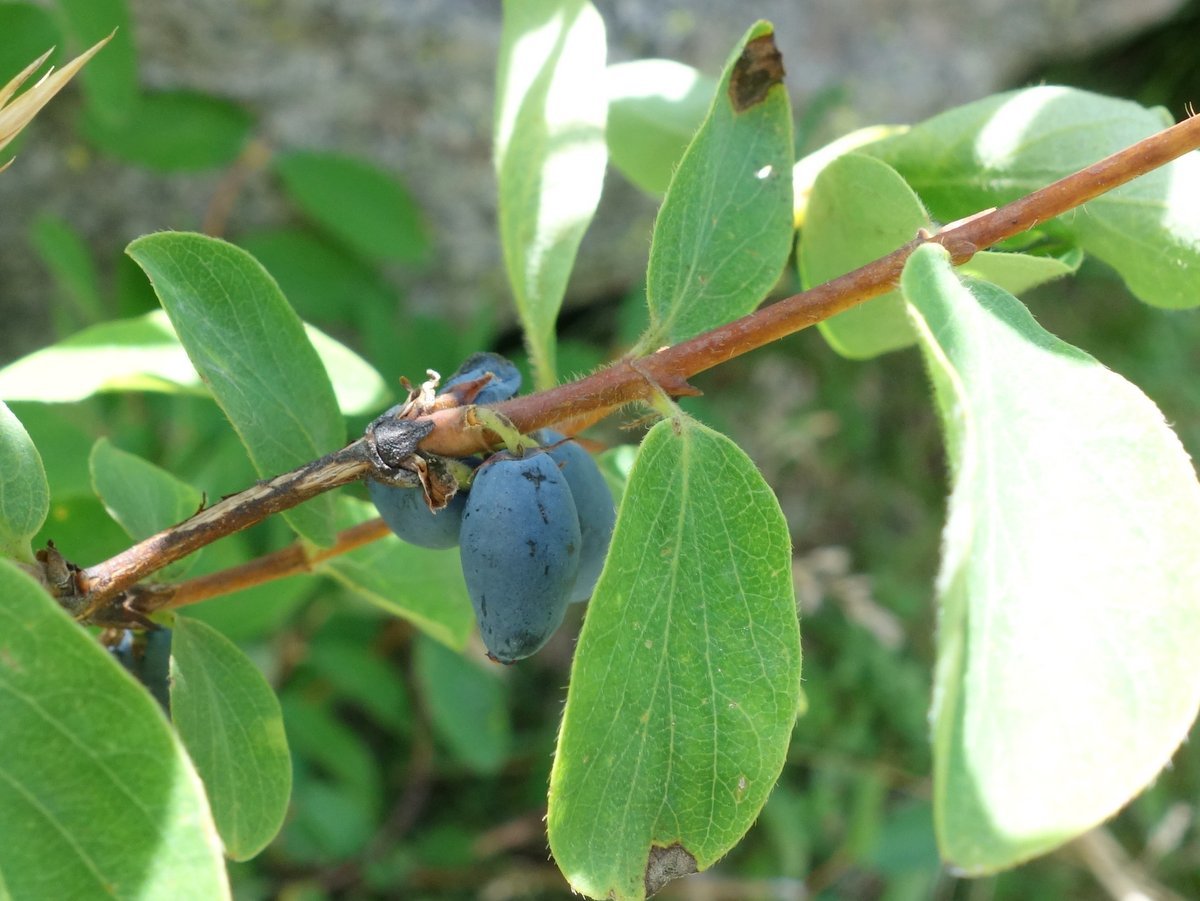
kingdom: Plantae
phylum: Tracheophyta
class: Magnoliopsida
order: Dipsacales
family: Caprifoliaceae
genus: Lonicera
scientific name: Lonicera caerulea
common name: Blue honeysuckle
